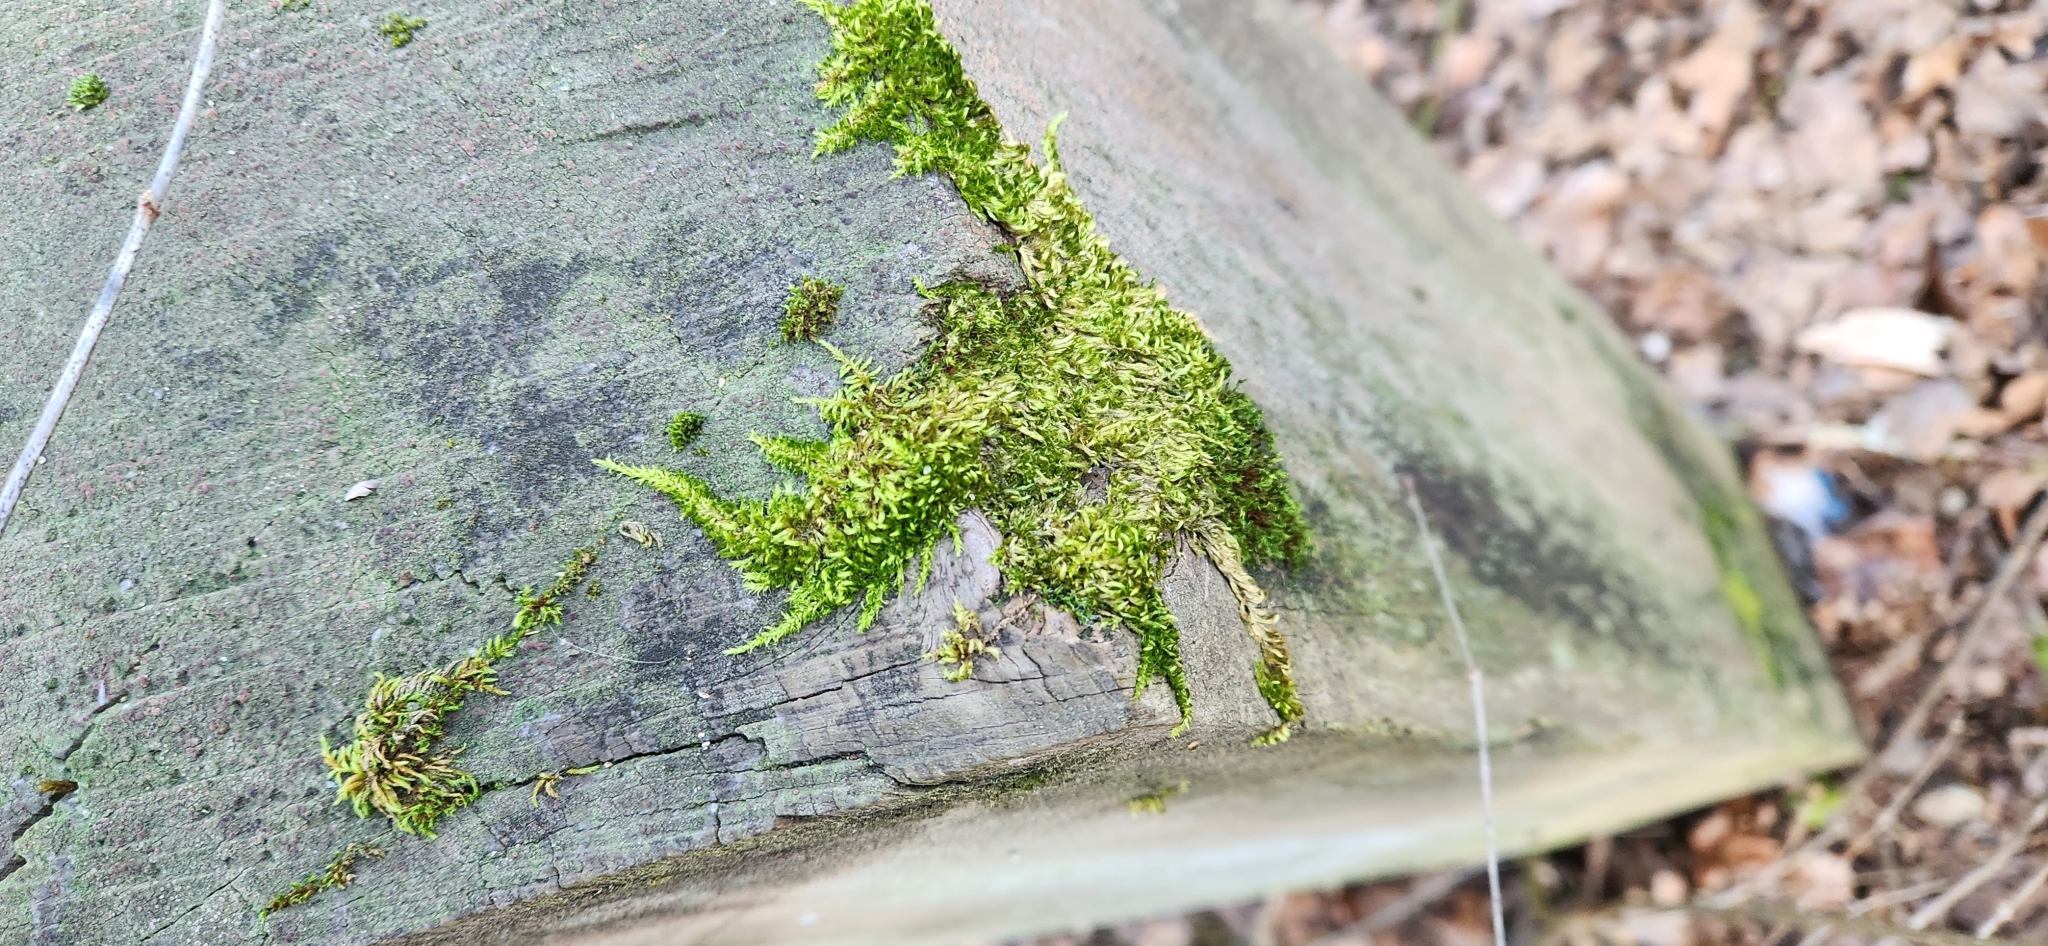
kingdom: Plantae
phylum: Bryophyta
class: Bryopsida
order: Hypnales
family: Brachytheciaceae
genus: Homalothecium
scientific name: Homalothecium nuttallii
